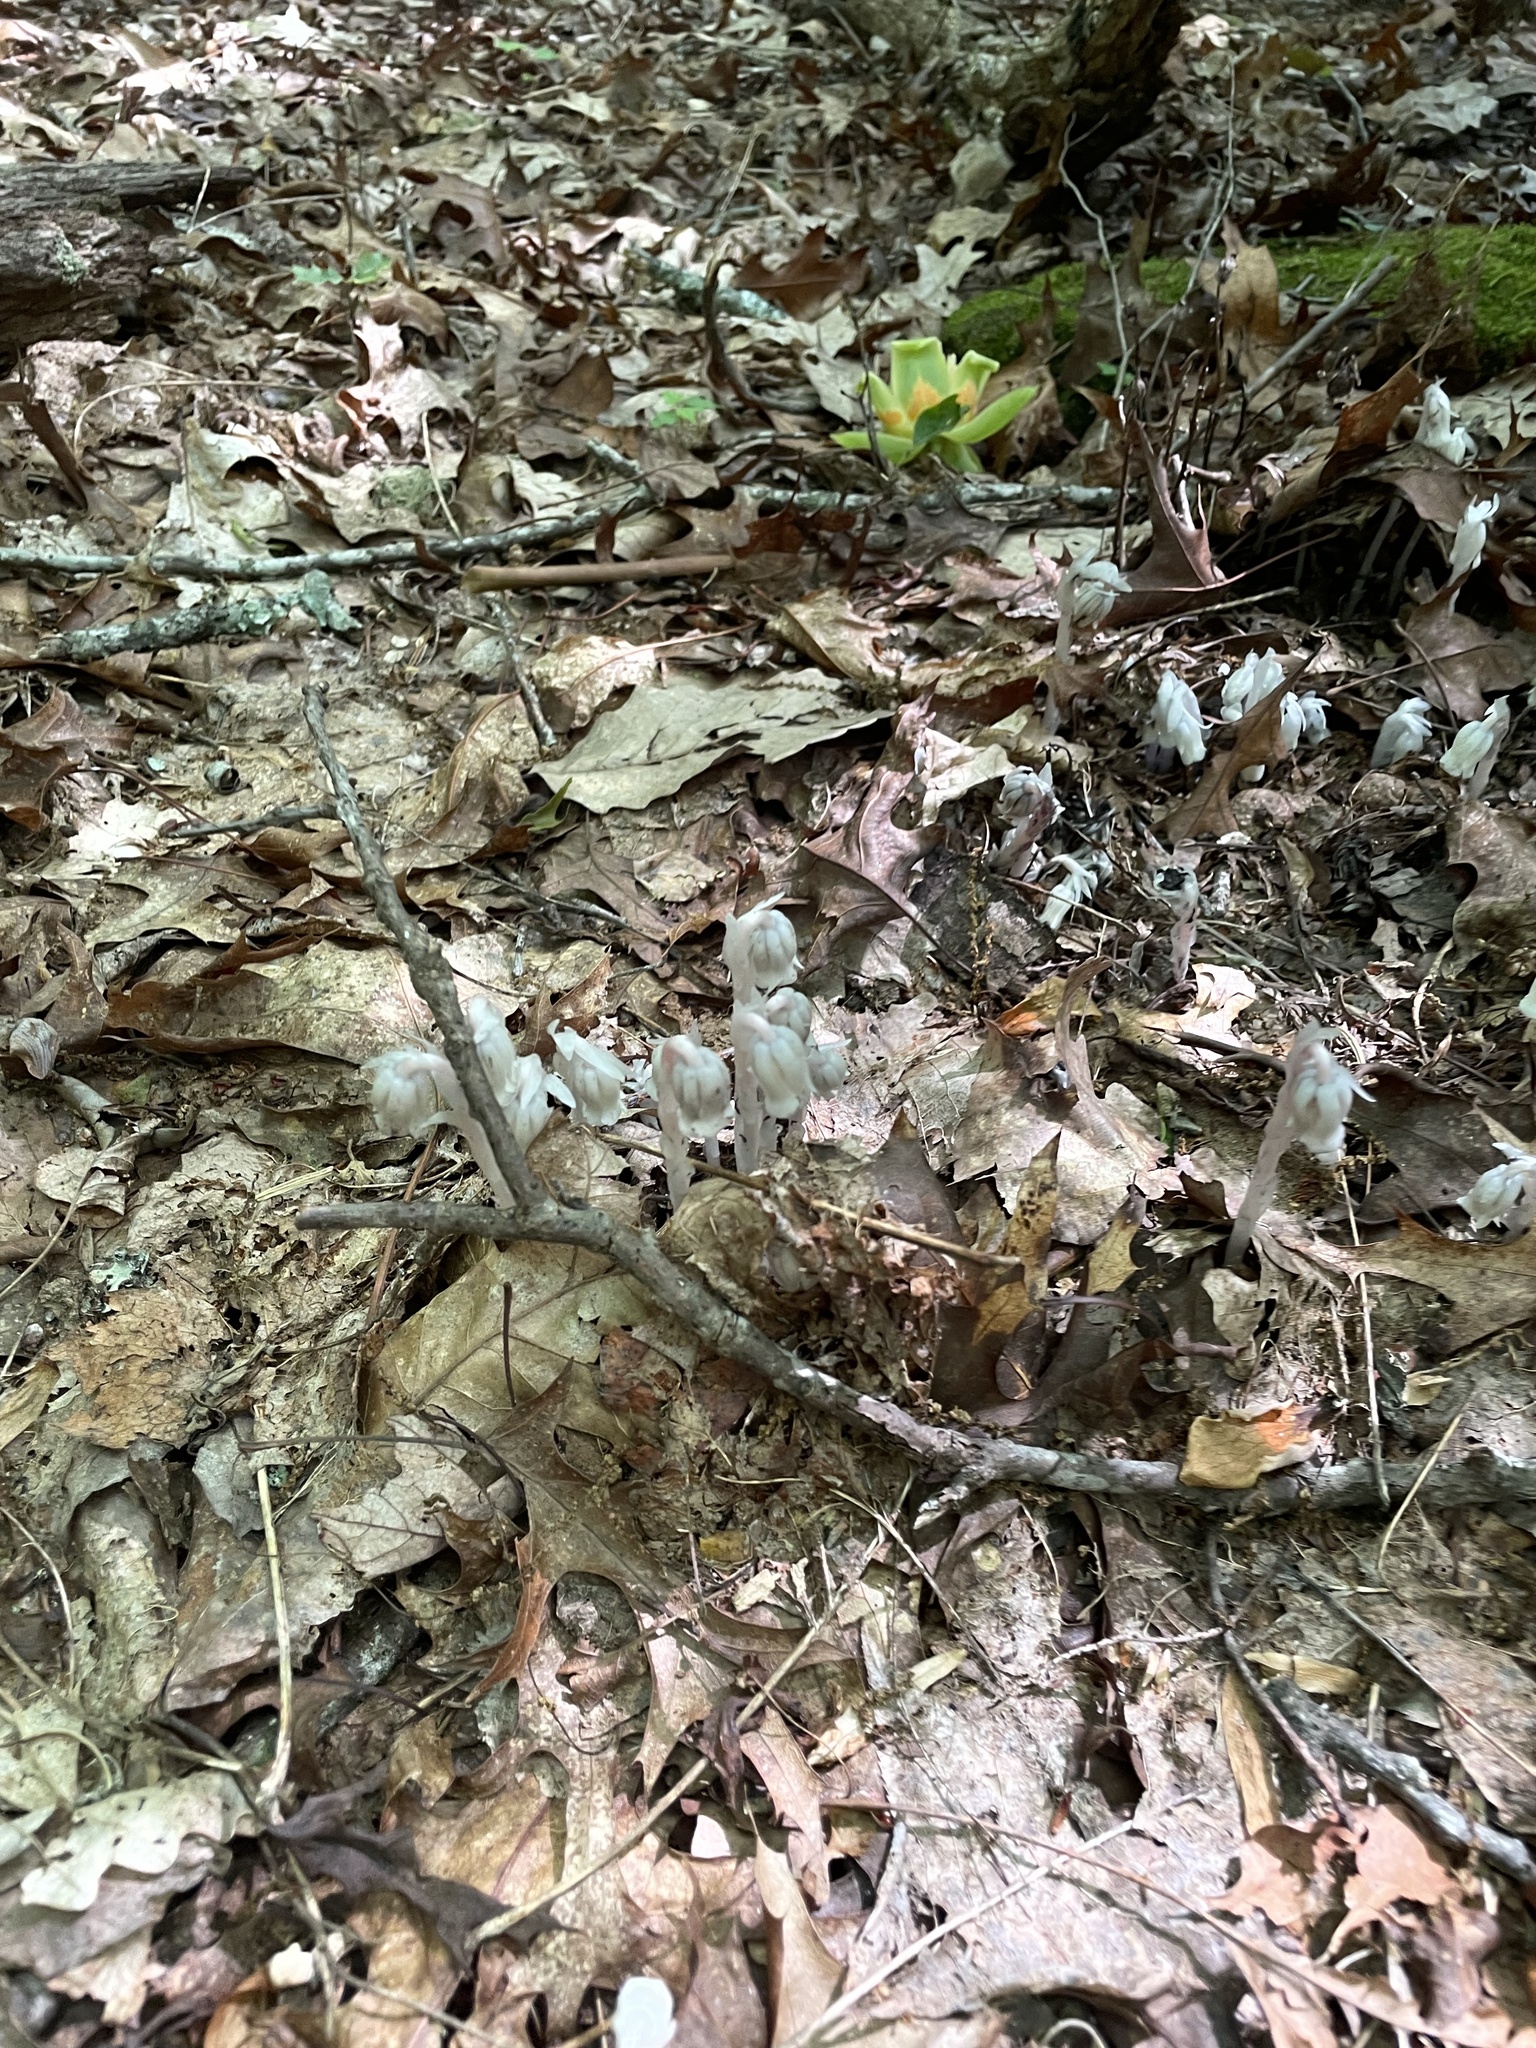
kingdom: Plantae
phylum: Tracheophyta
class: Magnoliopsida
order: Ericales
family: Ericaceae
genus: Monotropa
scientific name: Monotropa uniflora
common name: Convulsion root
